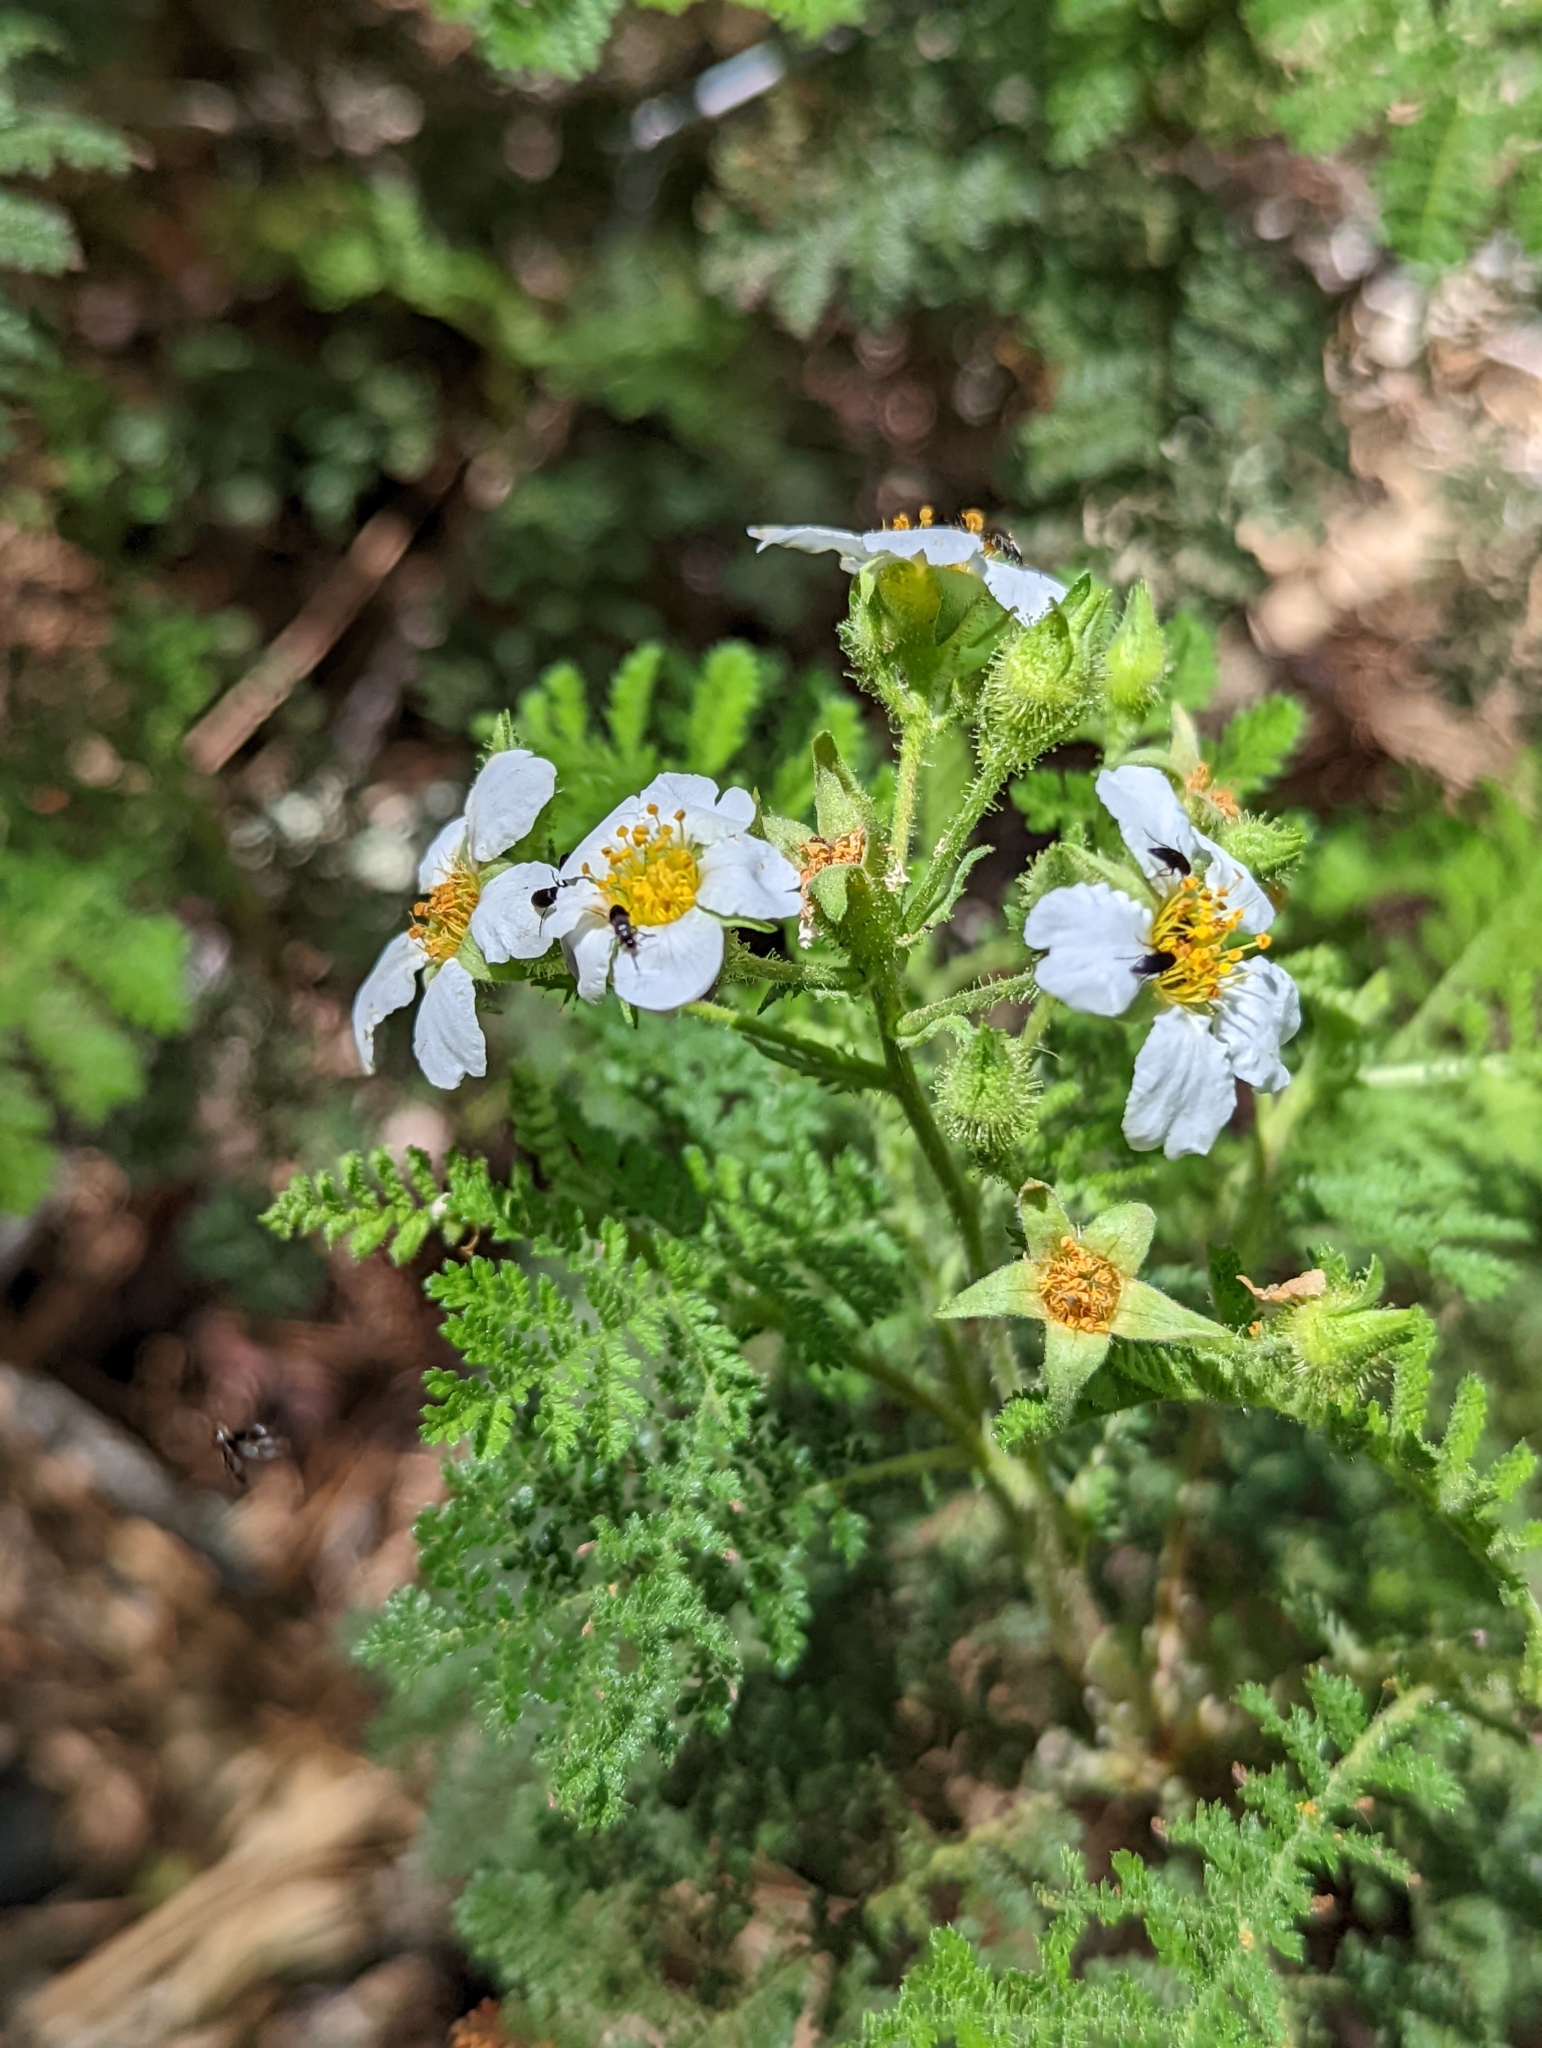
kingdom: Plantae
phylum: Tracheophyta
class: Magnoliopsida
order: Rosales
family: Rosaceae
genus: Chamaebatia
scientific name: Chamaebatia foliolosa
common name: Mountain misery
